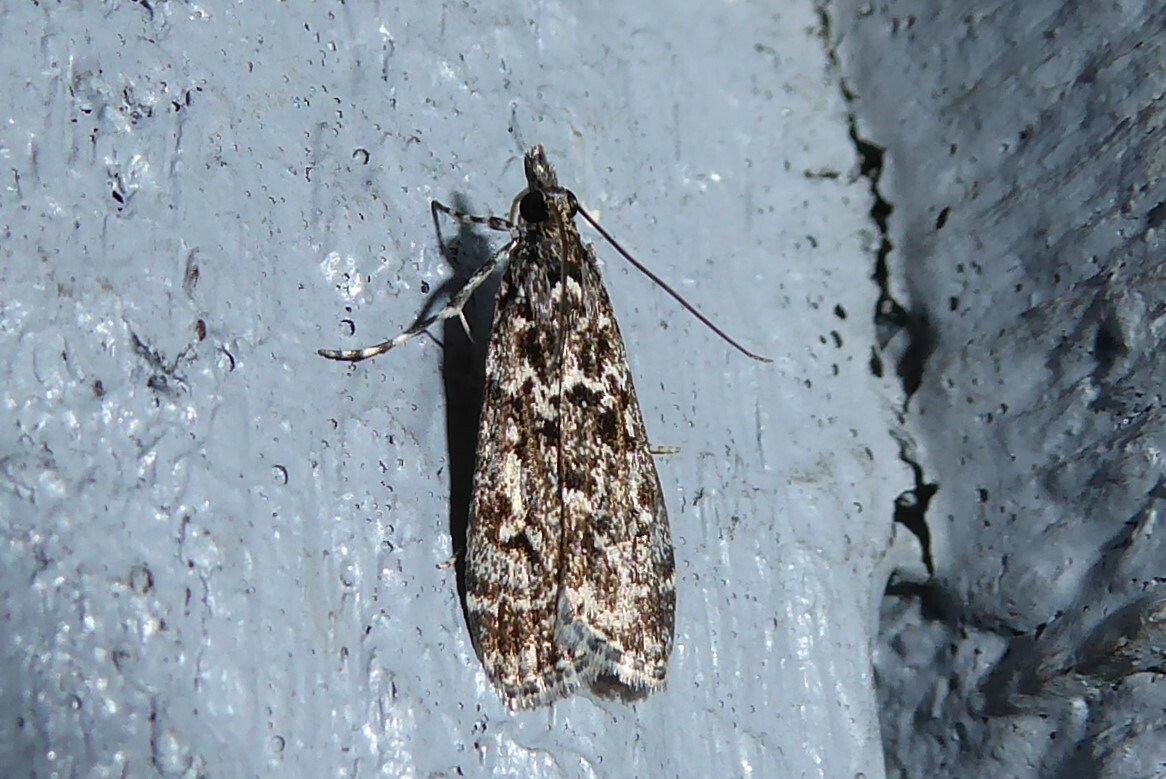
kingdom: Animalia
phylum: Arthropoda
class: Insecta
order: Lepidoptera
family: Crambidae
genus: Eudonia
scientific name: Eudonia philerga
